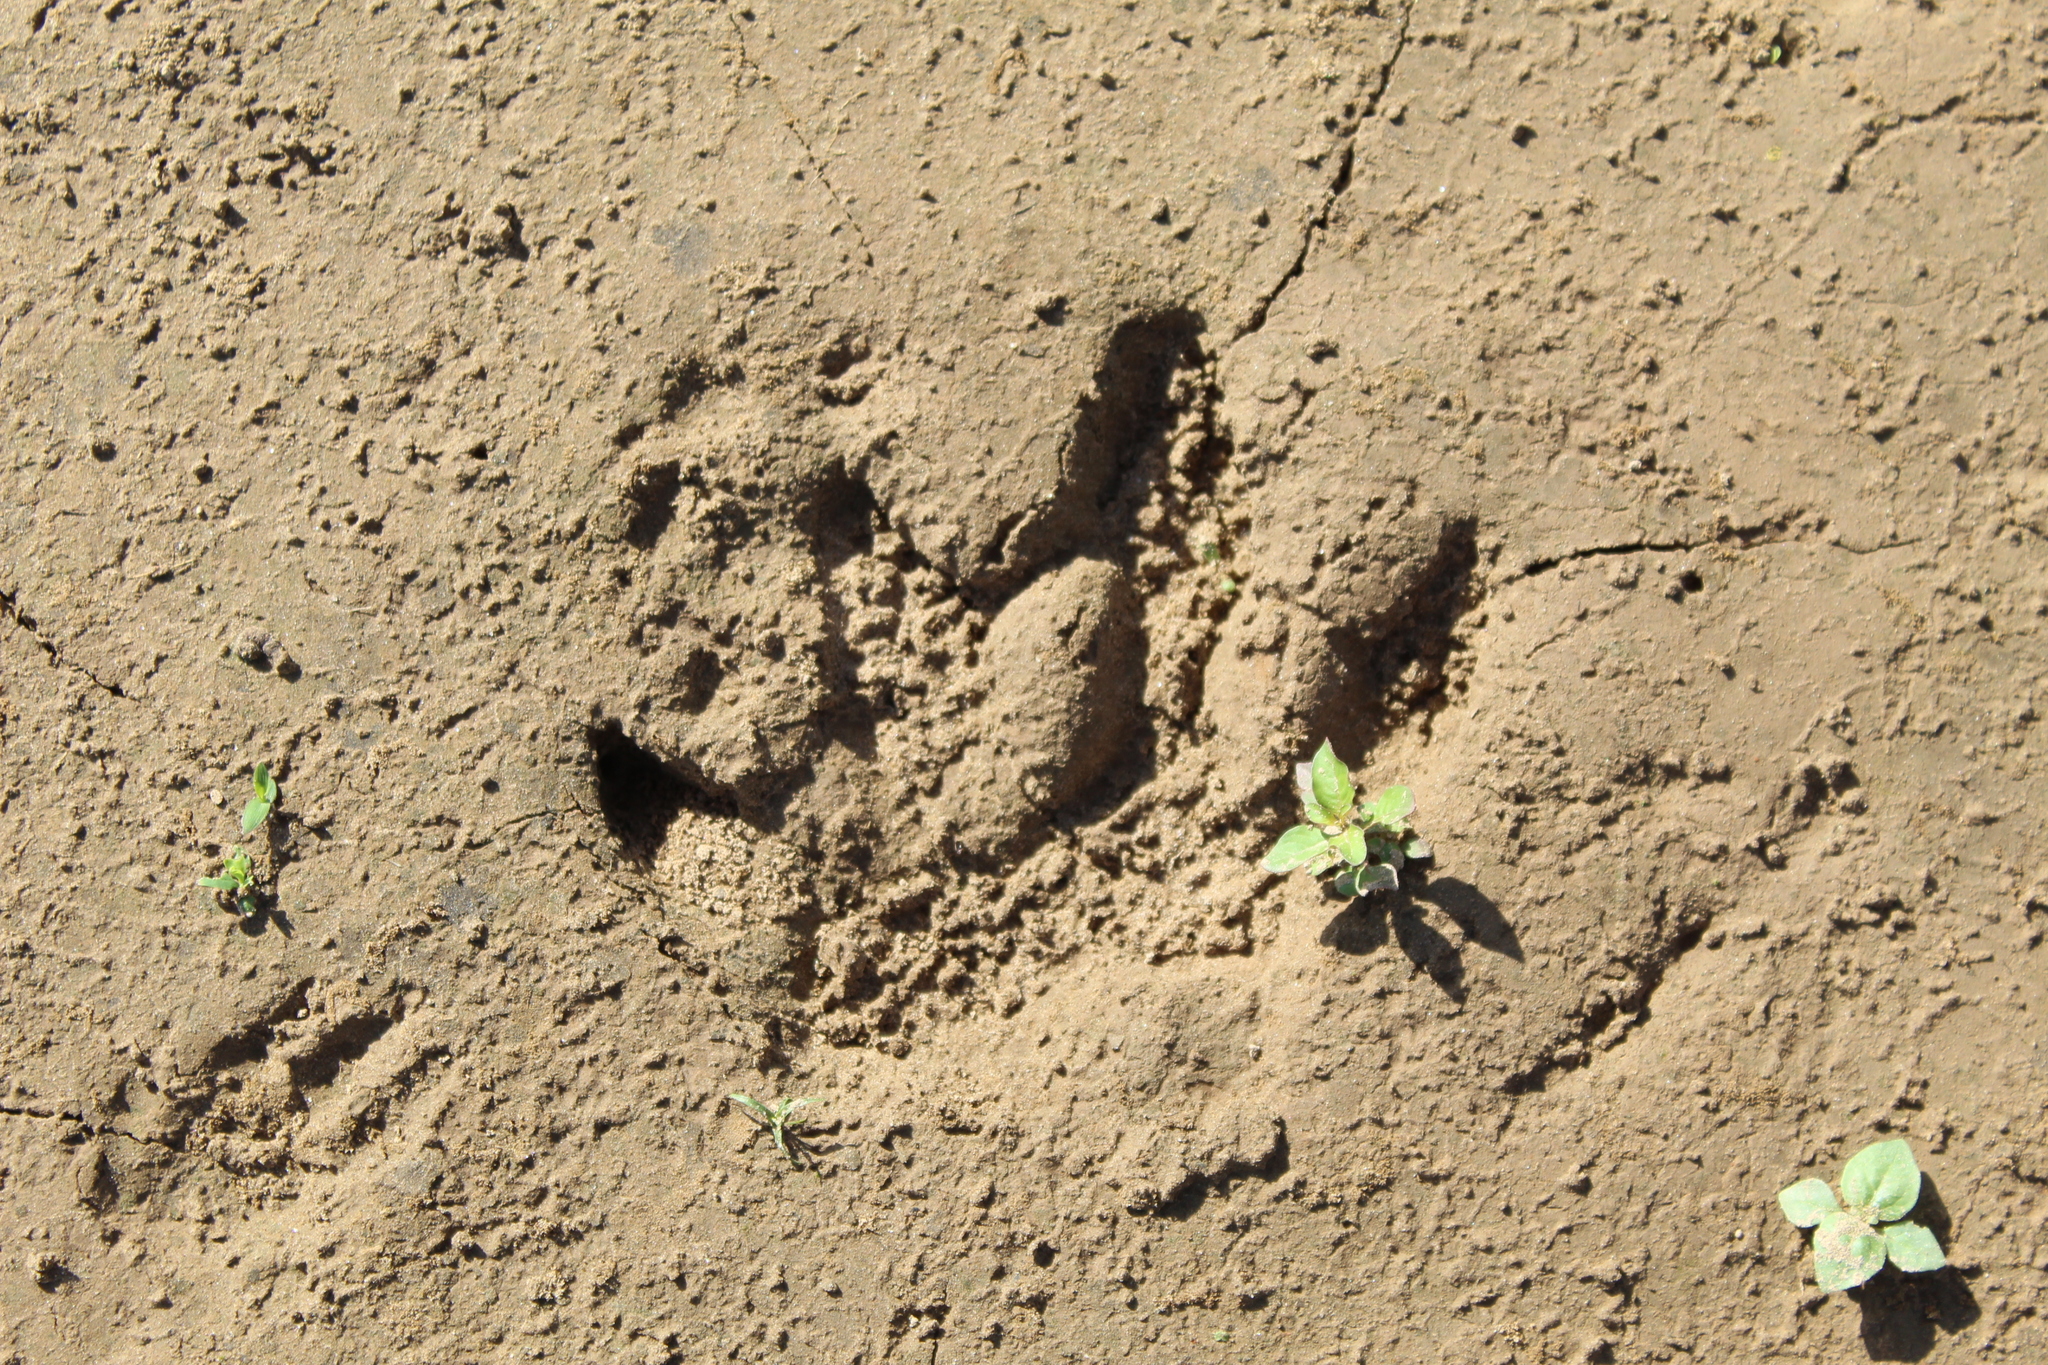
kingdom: Animalia
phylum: Chordata
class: Mammalia
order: Rodentia
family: Caviidae
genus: Hydrochoerus
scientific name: Hydrochoerus hydrochaeris
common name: Capybara
